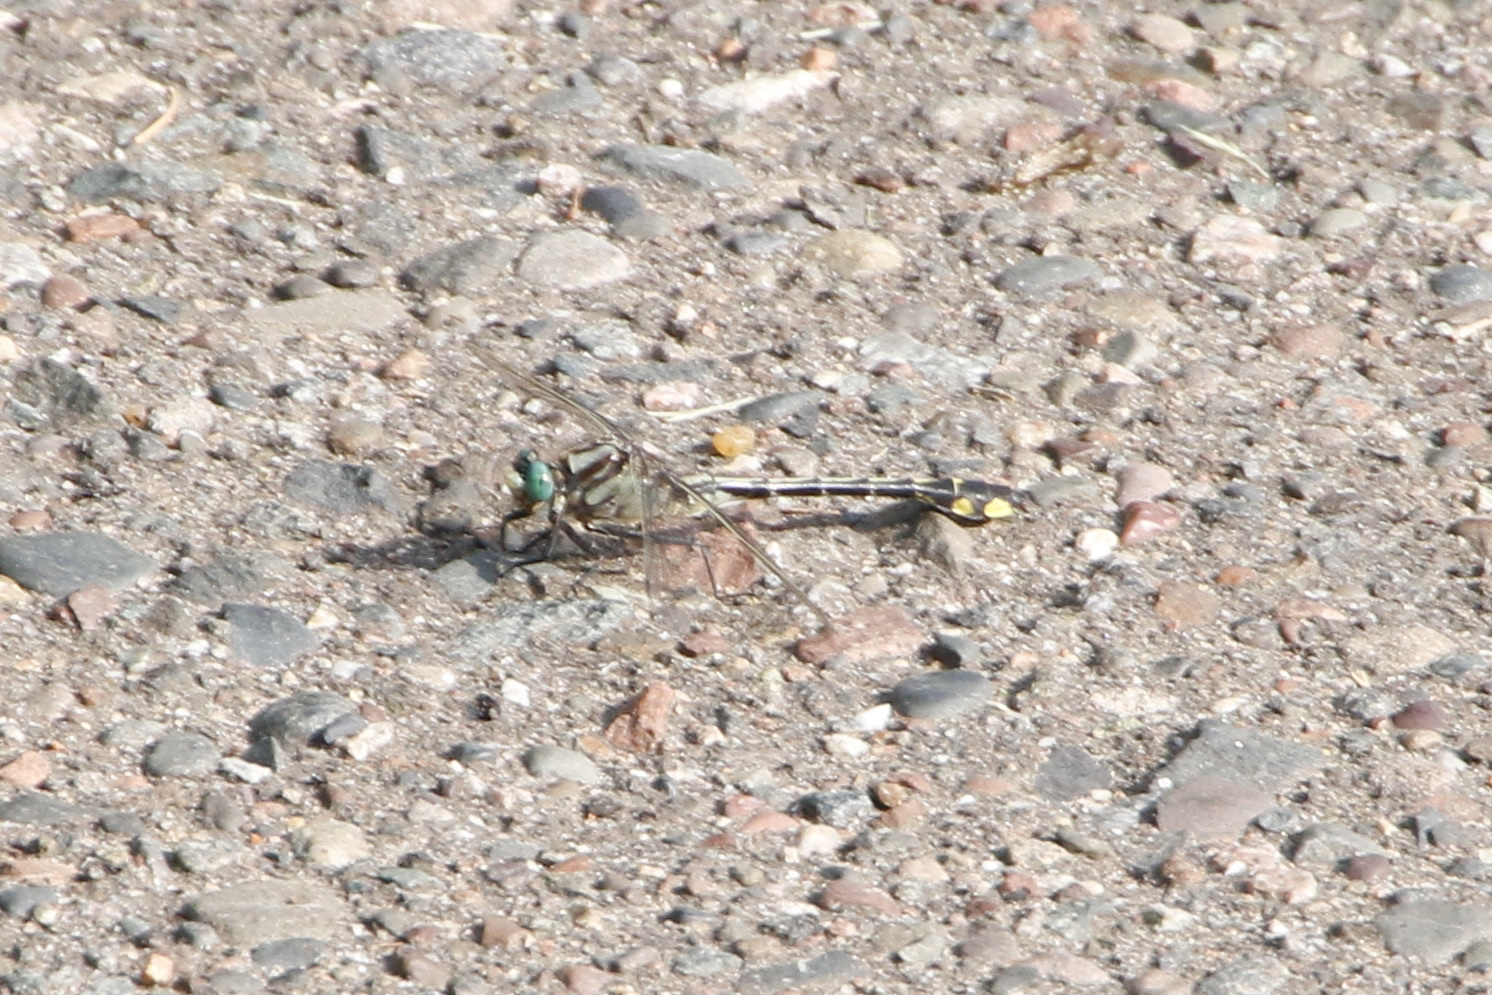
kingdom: Animalia
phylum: Arthropoda
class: Insecta
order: Odonata
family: Gomphidae
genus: Gomphurus
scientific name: Gomphurus fraternus
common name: Midland clubtail
